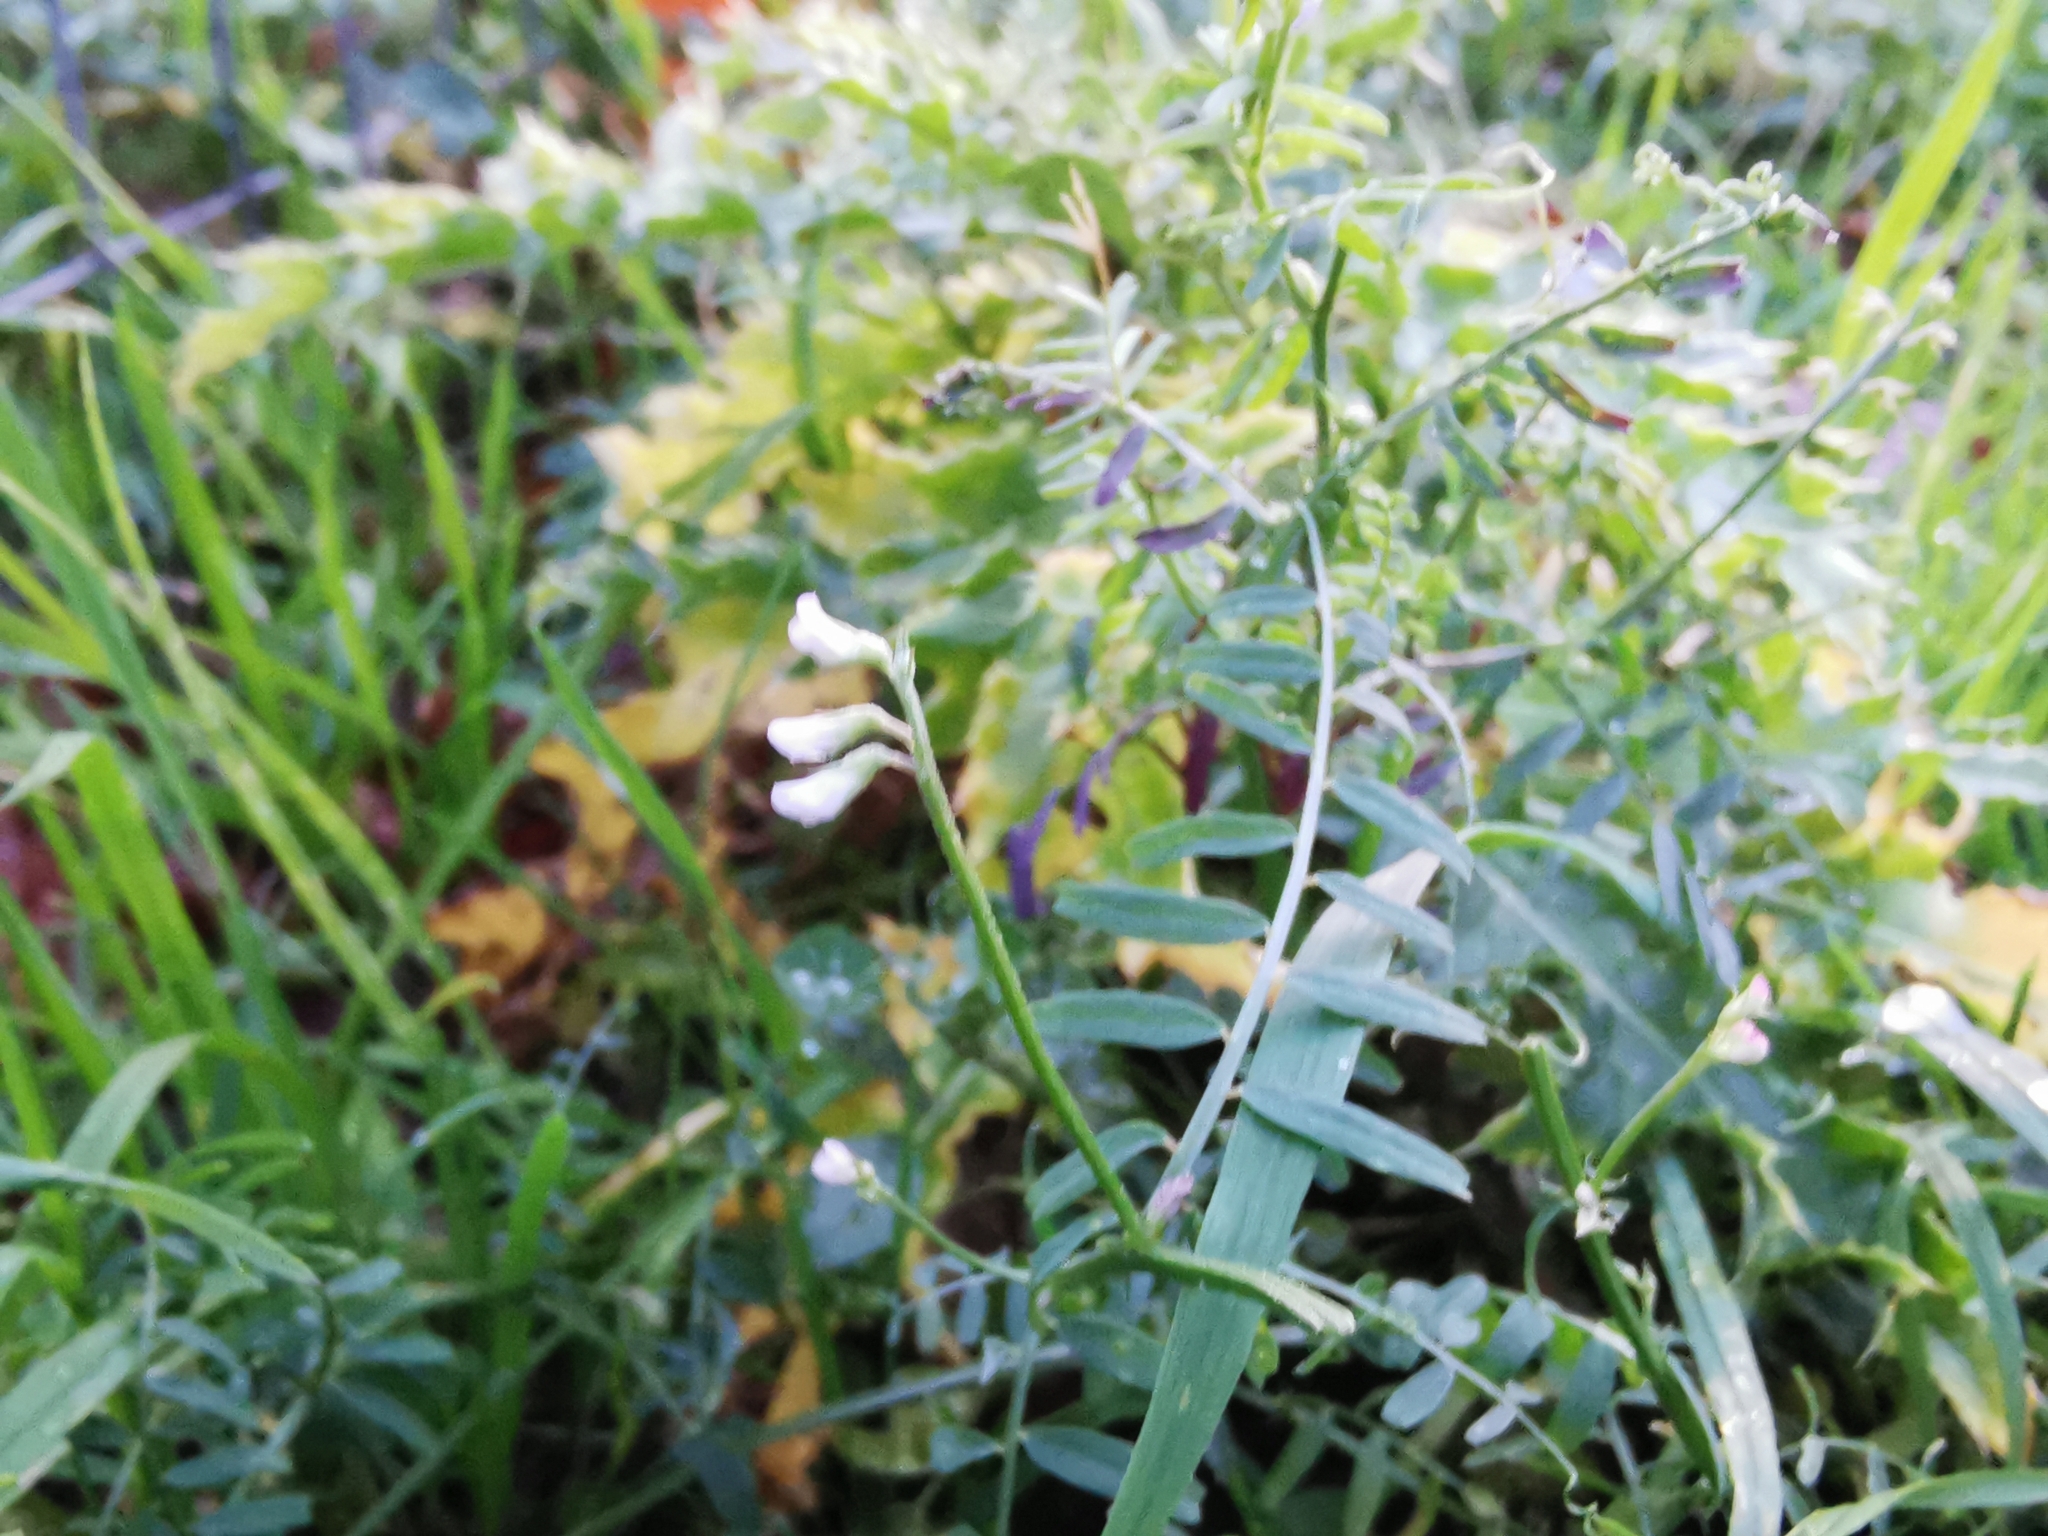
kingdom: Plantae
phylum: Tracheophyta
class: Magnoliopsida
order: Fabales
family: Fabaceae
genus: Vicia
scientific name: Vicia hirsuta
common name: Tiny vetch
